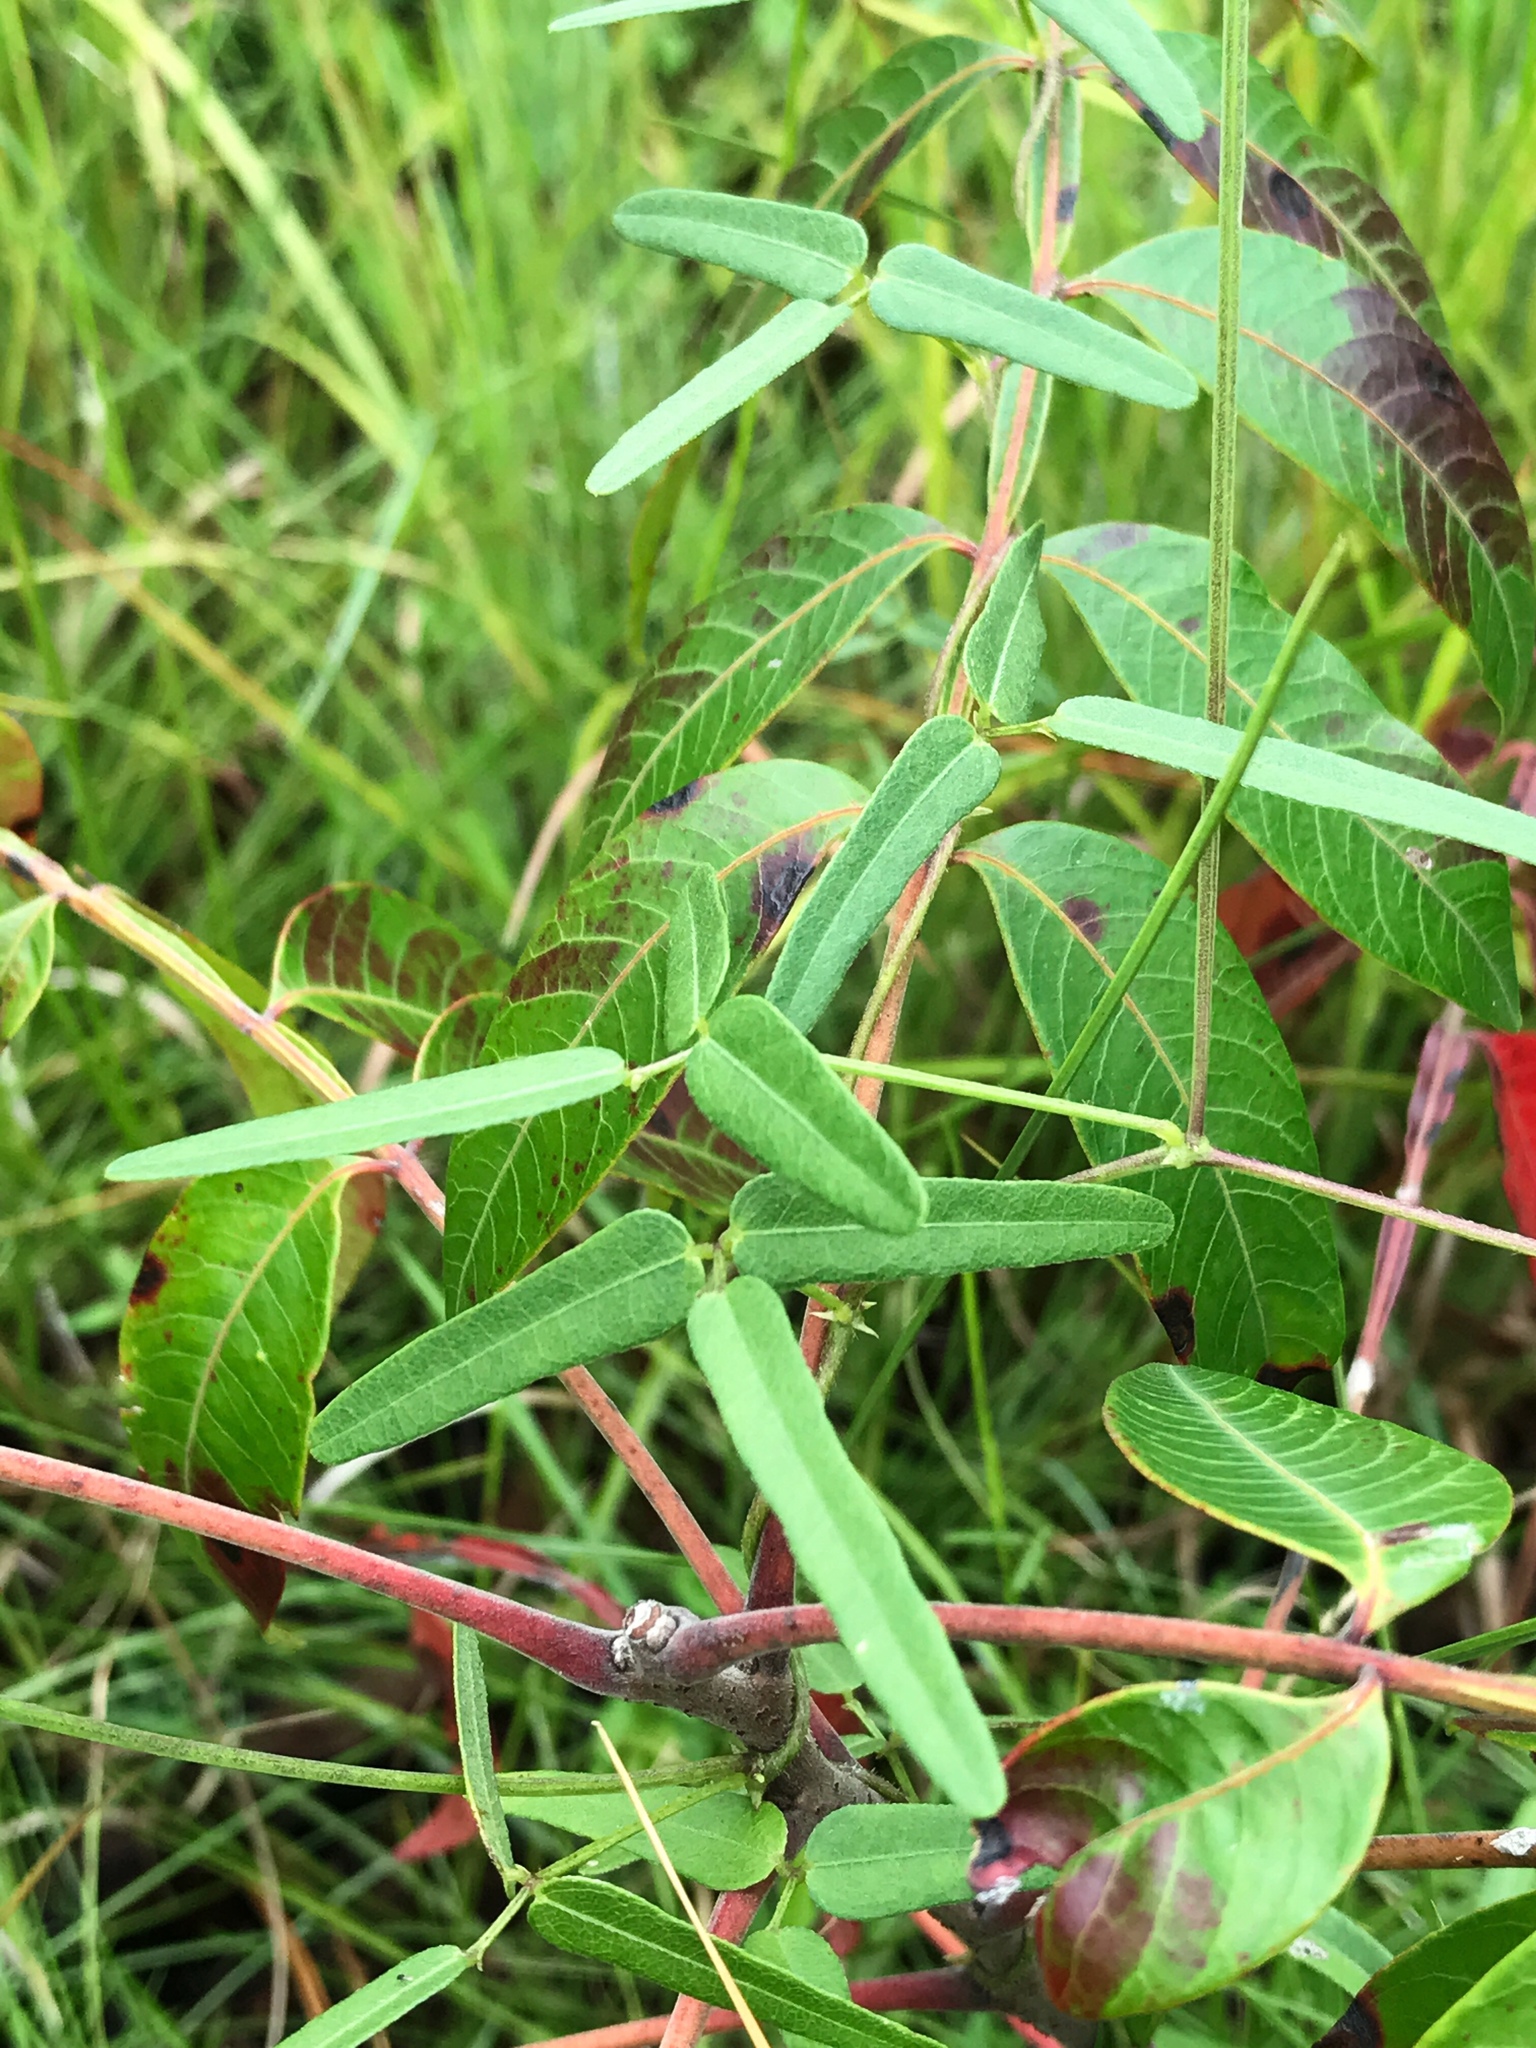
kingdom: Plantae
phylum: Tracheophyta
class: Magnoliopsida
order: Fabales
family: Fabaceae
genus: Strophostyles
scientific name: Strophostyles umbellata
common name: Perennial wild bean
